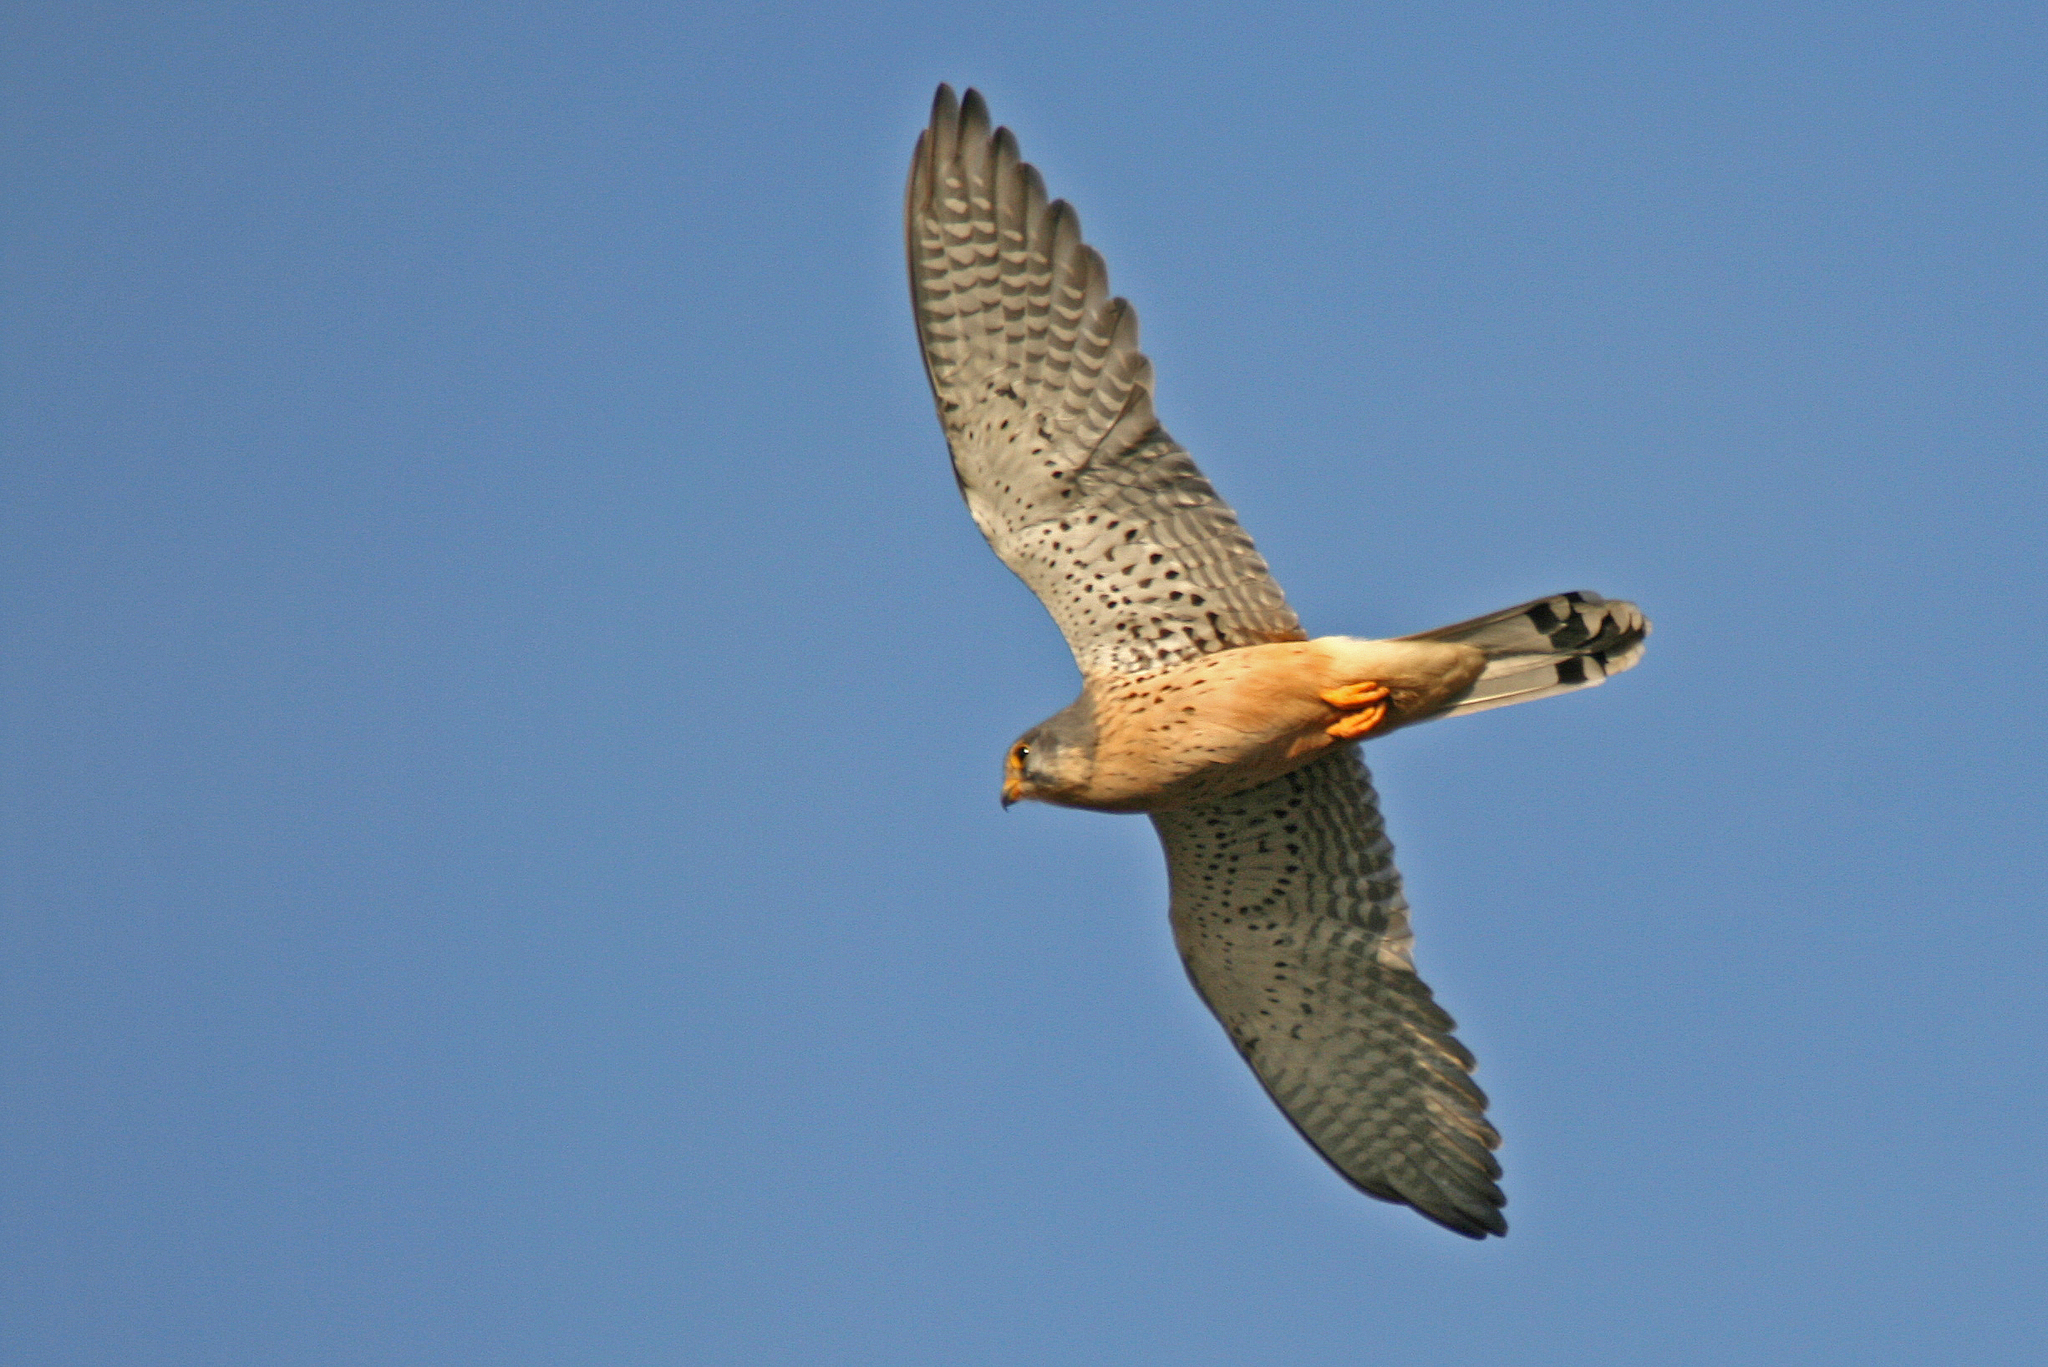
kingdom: Animalia
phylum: Chordata
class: Aves
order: Falconiformes
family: Falconidae
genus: Falco
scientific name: Falco tinnunculus
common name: Common kestrel
